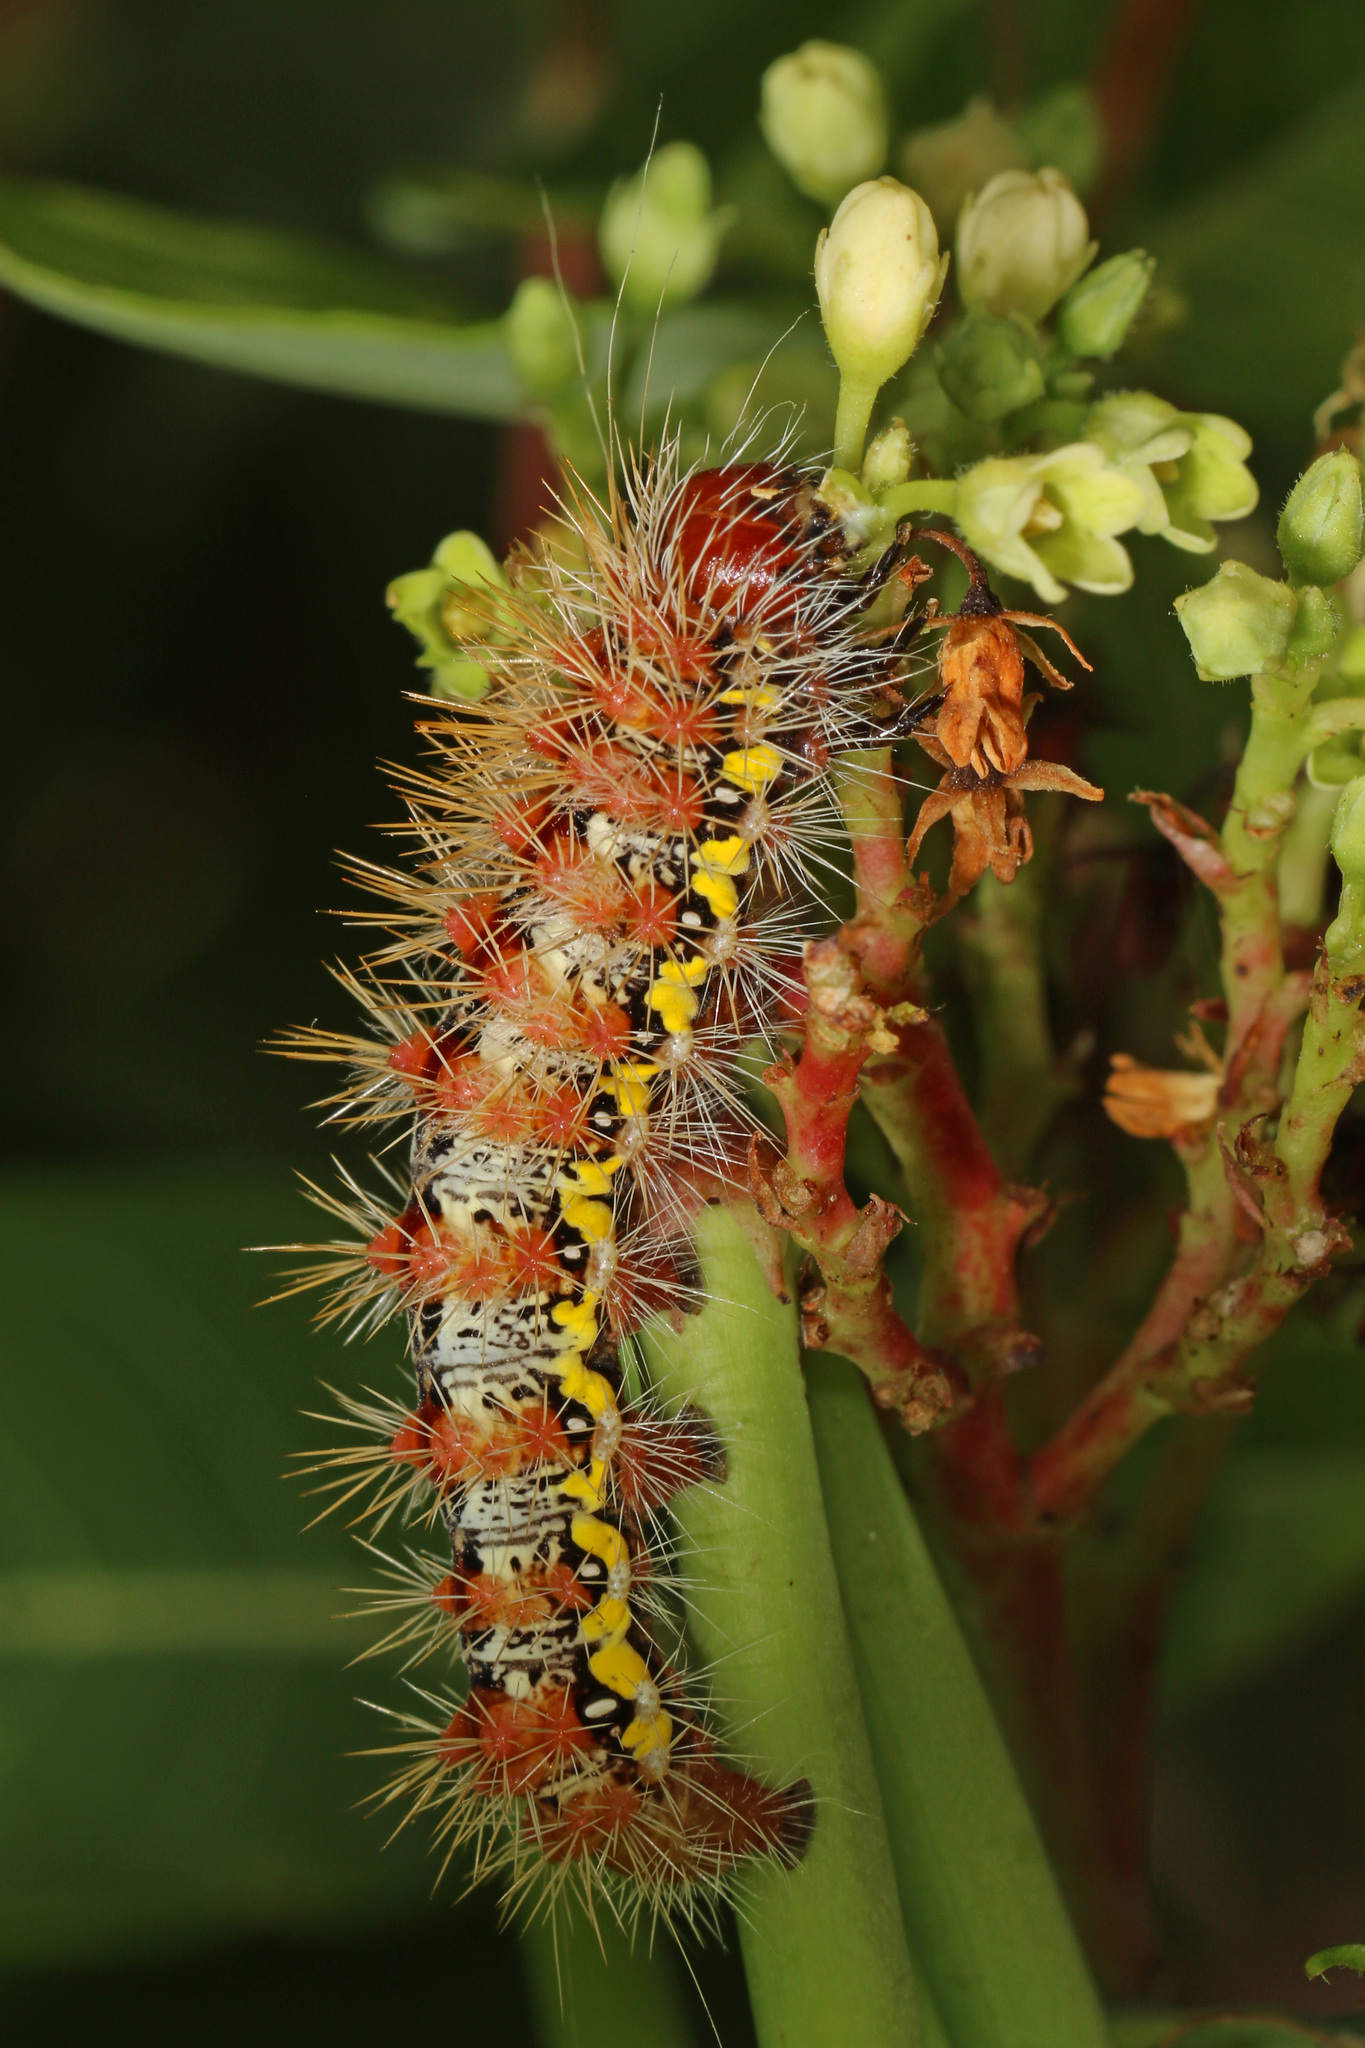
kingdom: Animalia
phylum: Arthropoda
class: Insecta
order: Lepidoptera
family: Noctuidae
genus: Acronicta
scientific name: Acronicta oblinita
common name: Smeared dagger
